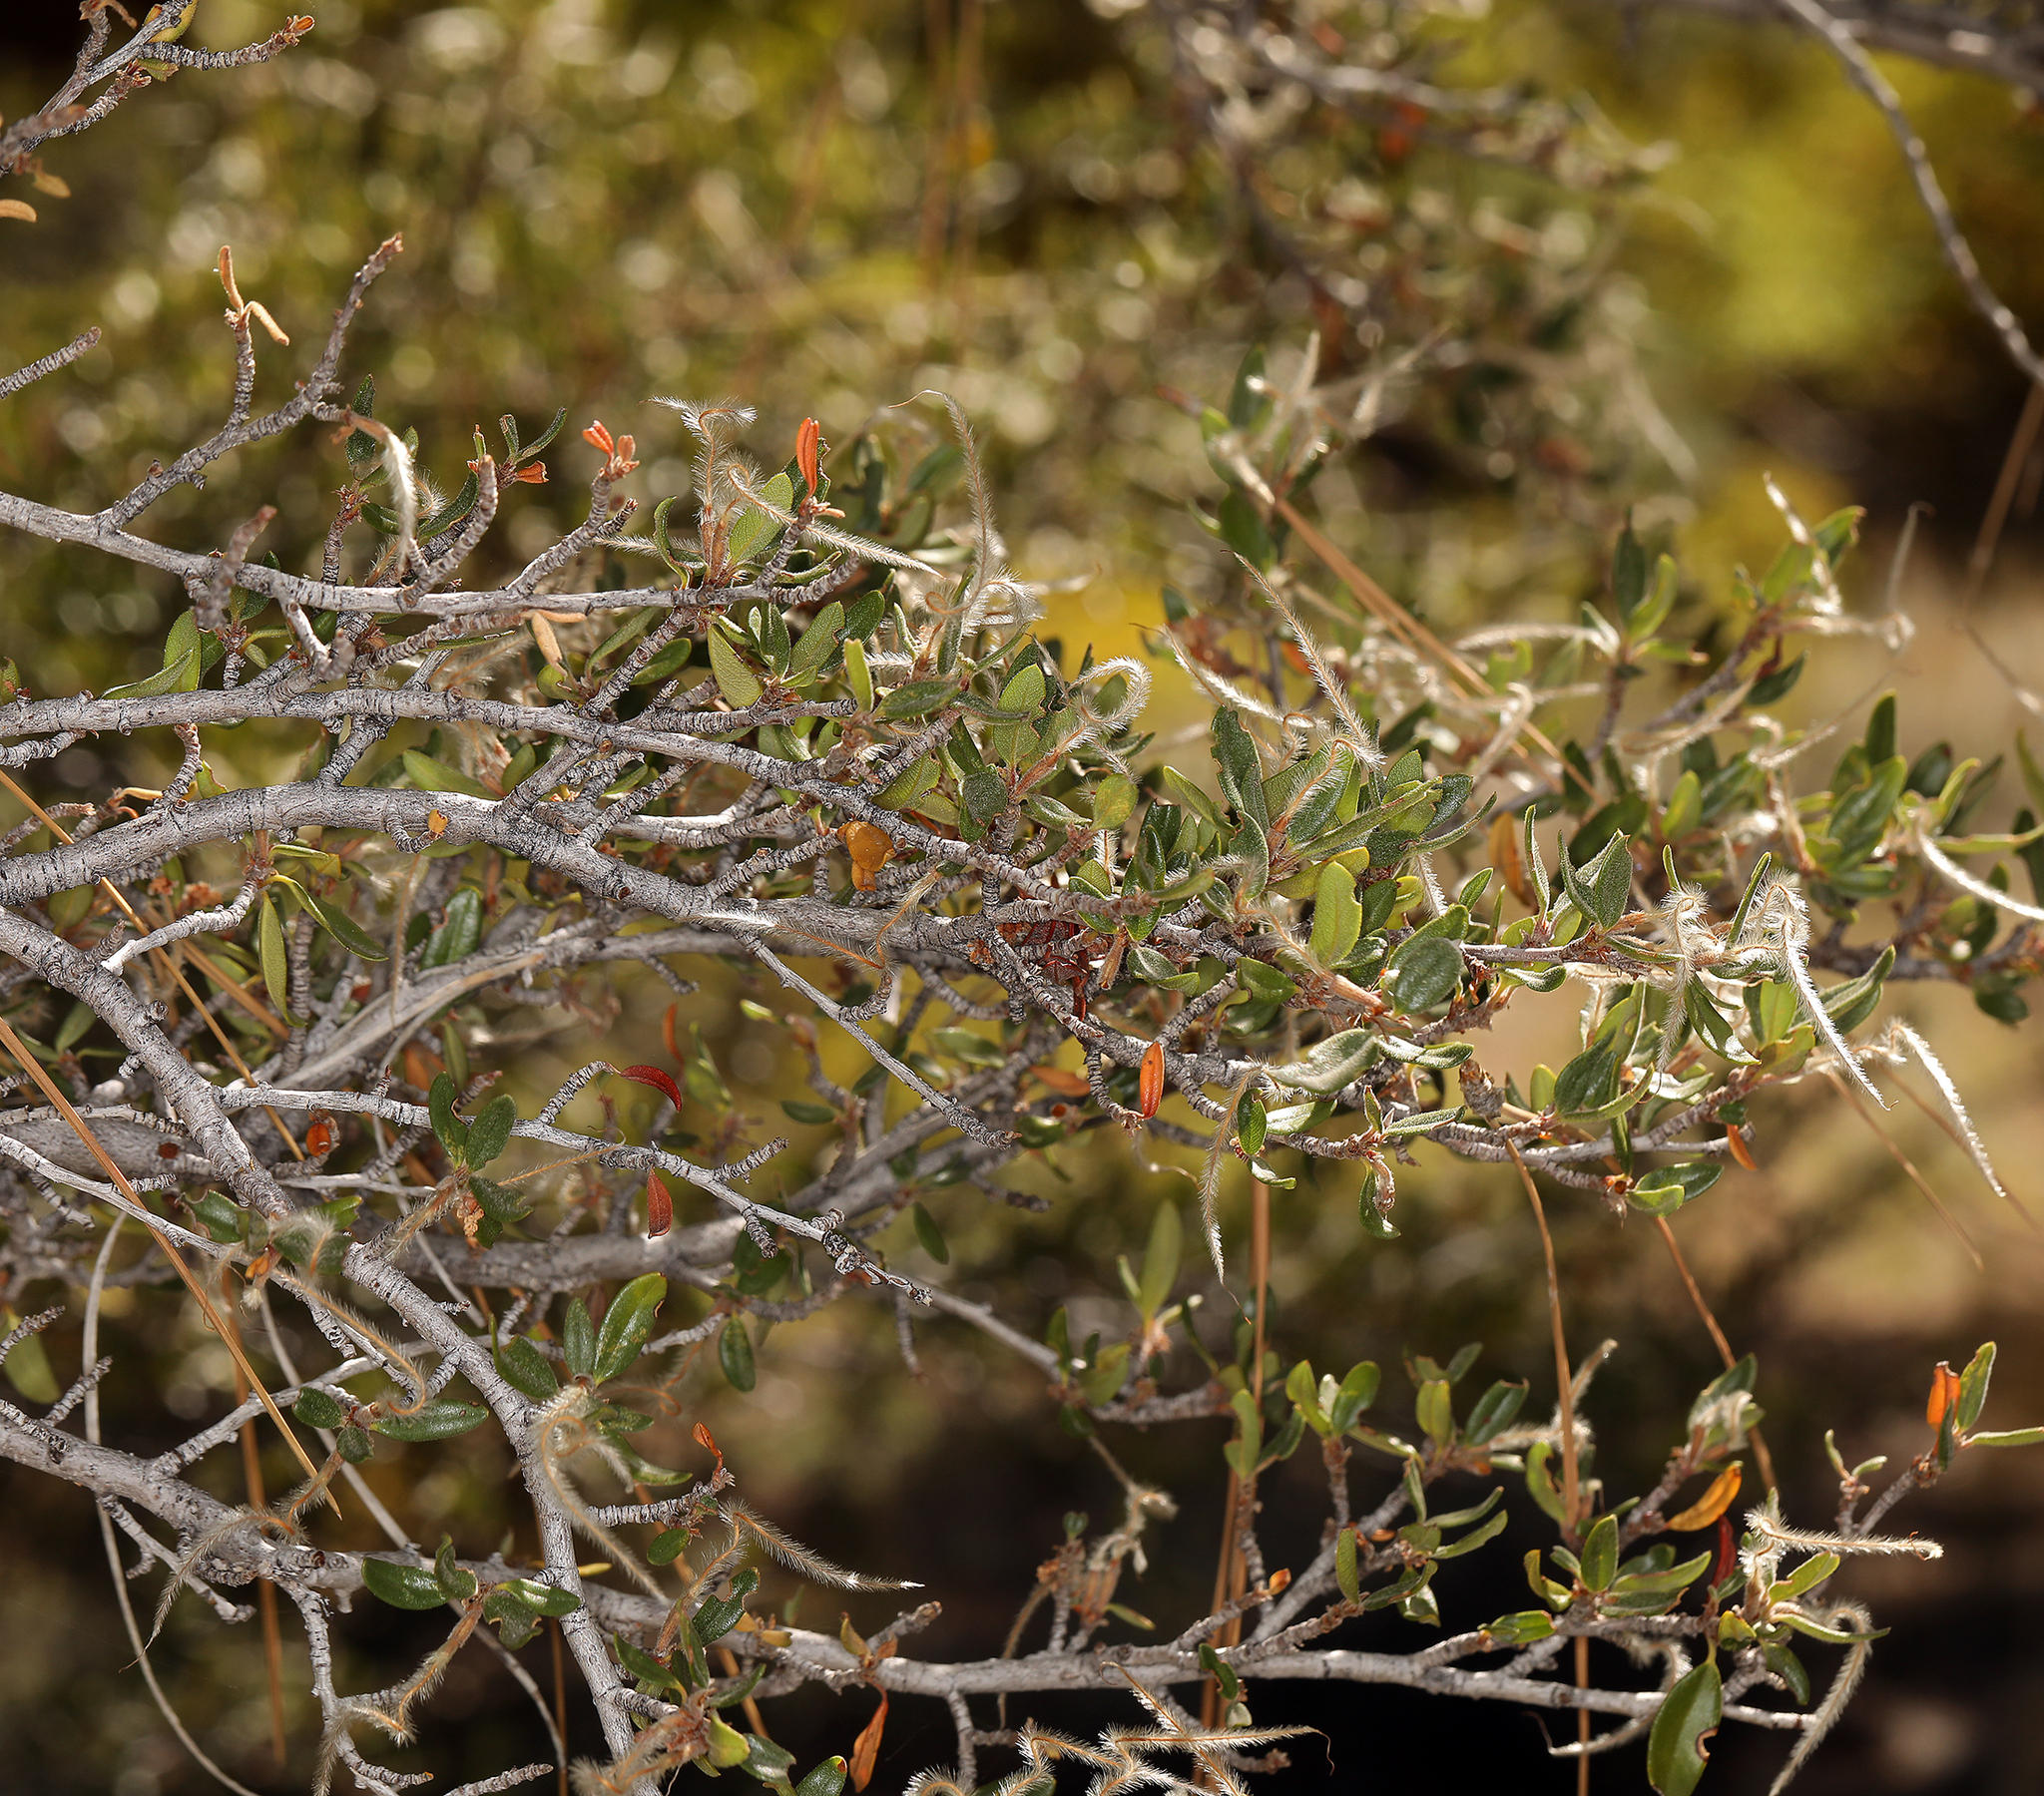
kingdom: Plantae
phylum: Tracheophyta
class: Magnoliopsida
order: Rosales
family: Rosaceae
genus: Cercocarpus
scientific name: Cercocarpus ledifolius
